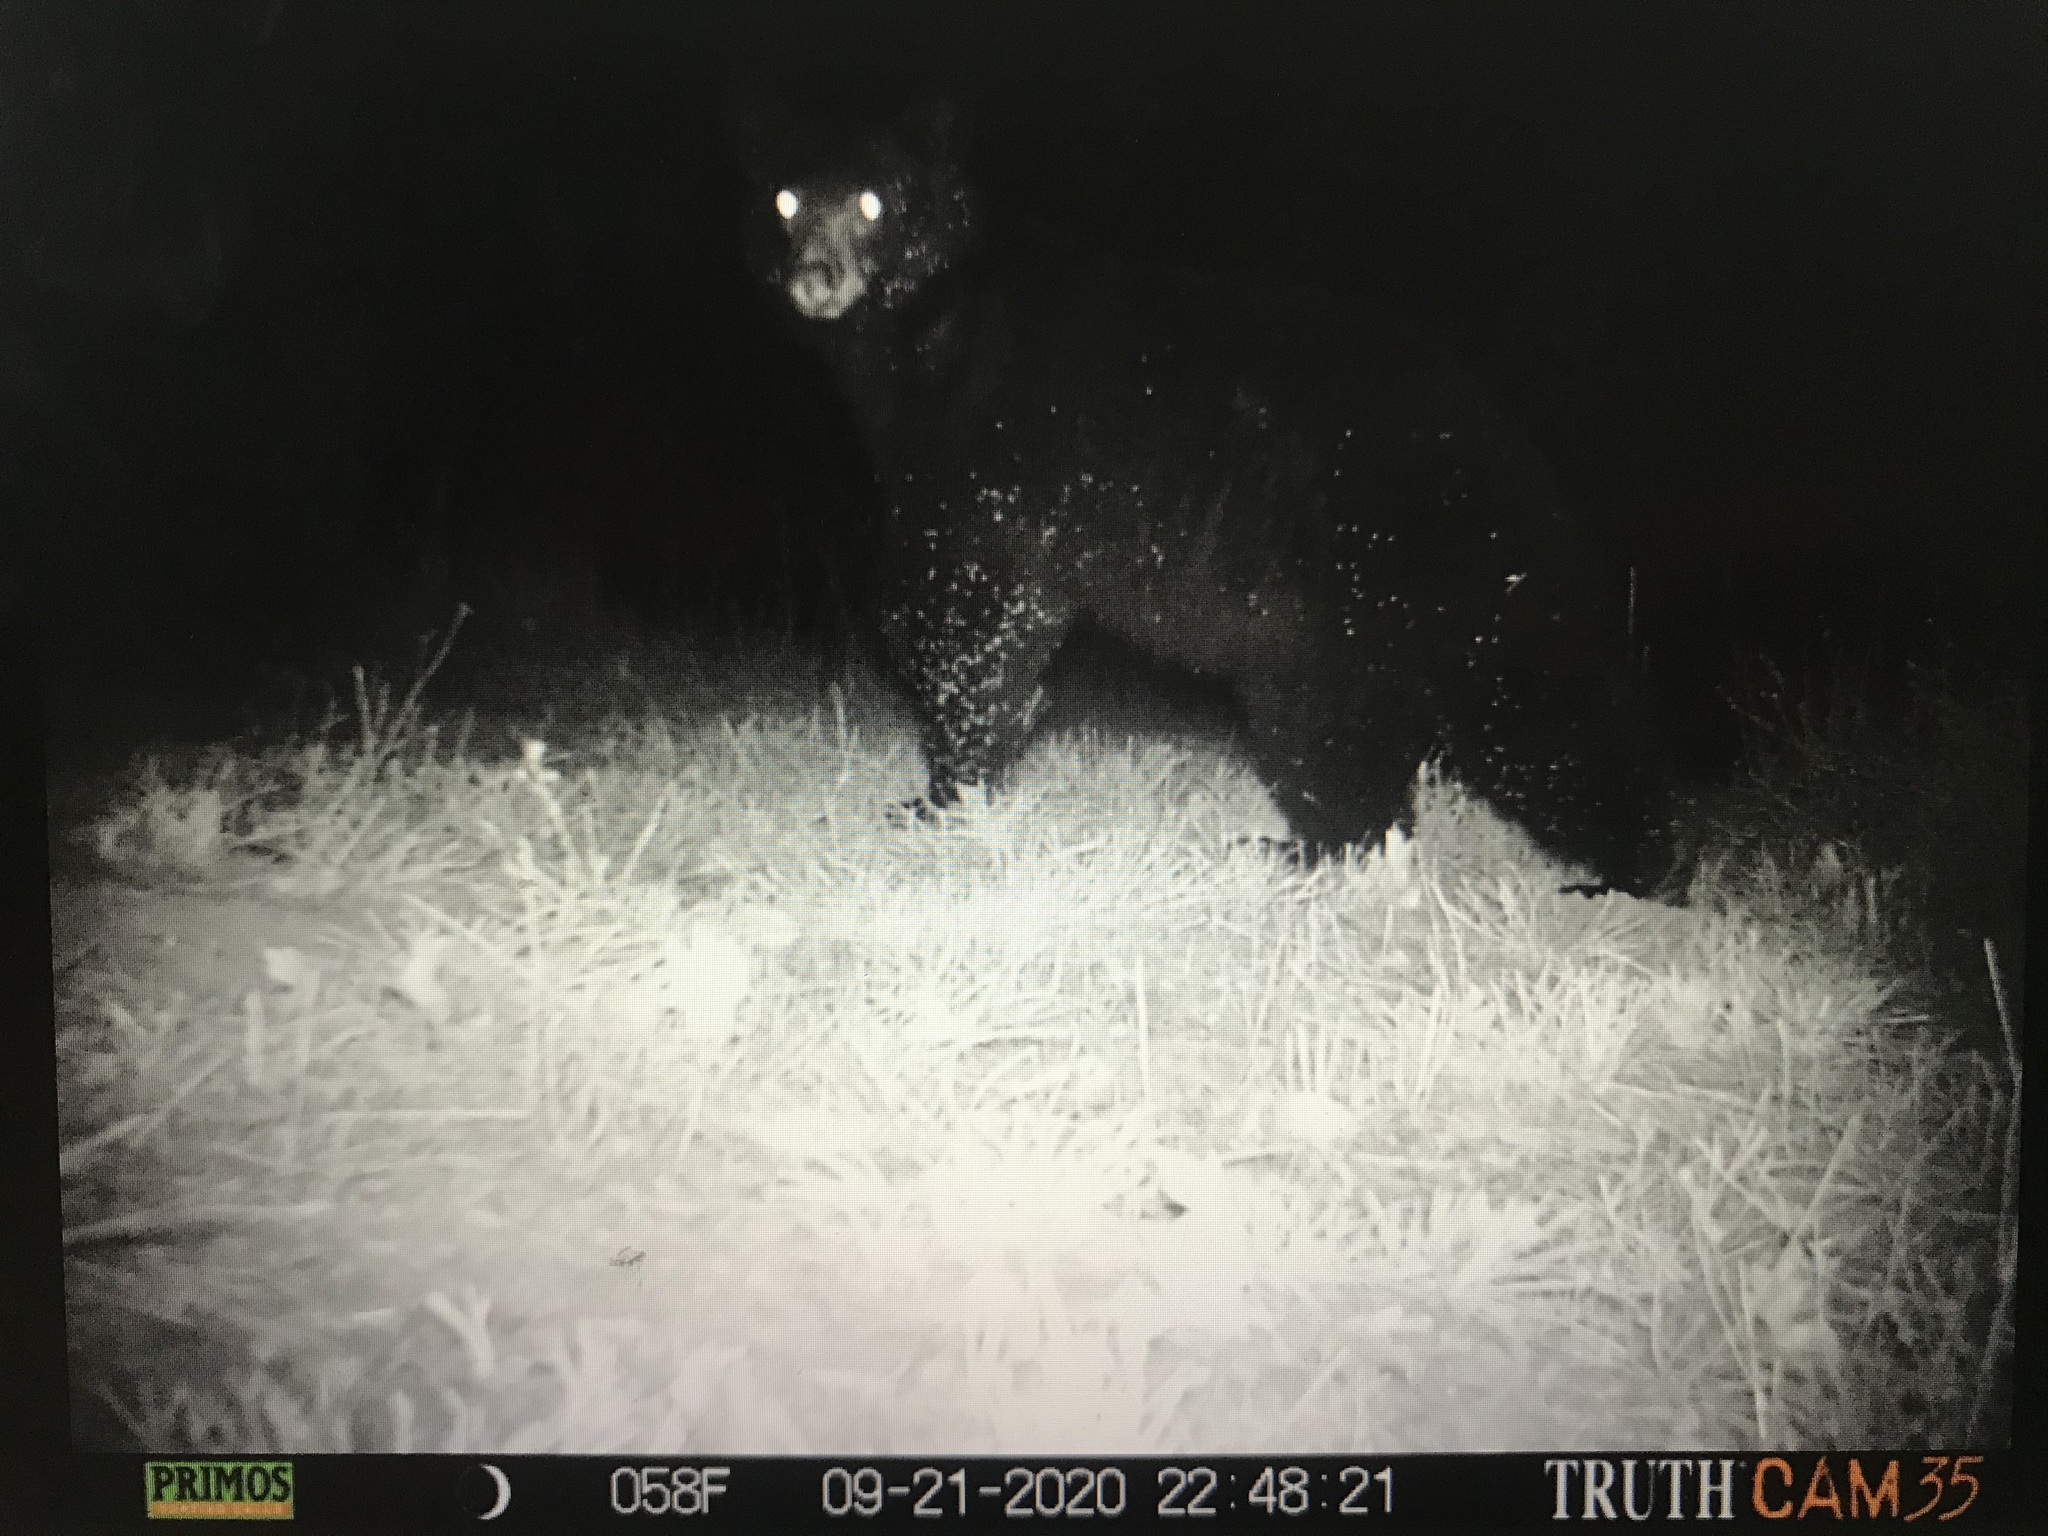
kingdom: Animalia
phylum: Chordata
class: Mammalia
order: Carnivora
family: Ursidae
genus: Ursus
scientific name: Ursus americanus
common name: American black bear
